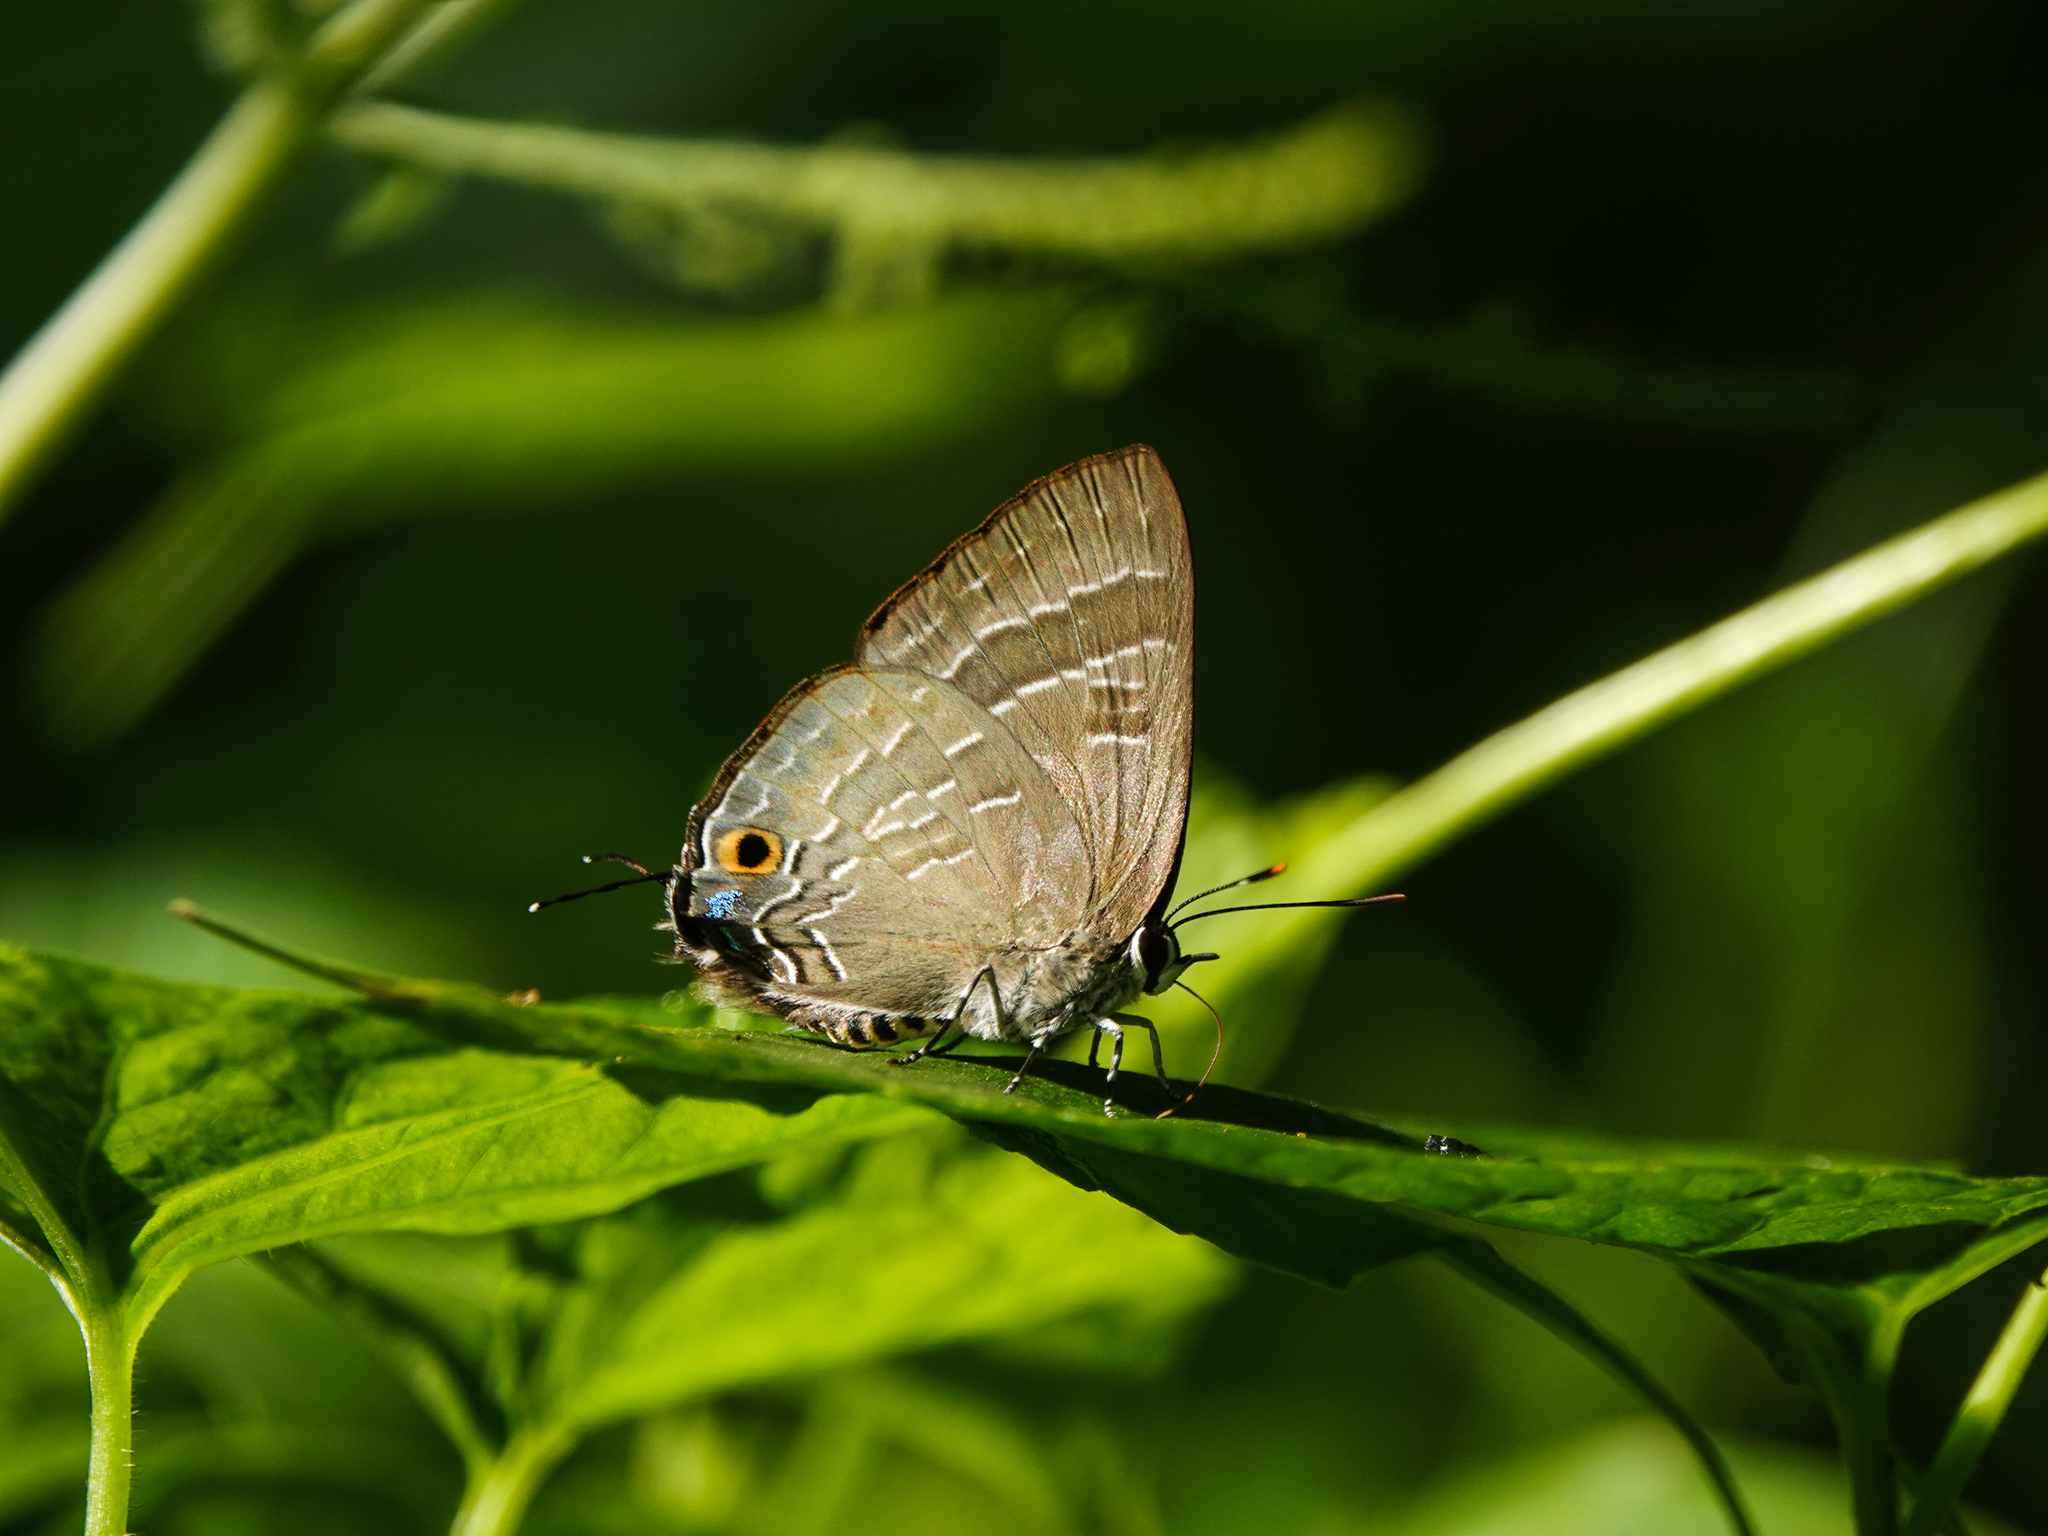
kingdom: Animalia
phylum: Arthropoda
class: Insecta
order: Lepidoptera
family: Lycaenidae
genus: Deudorix
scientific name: Deudorix epijarbas
